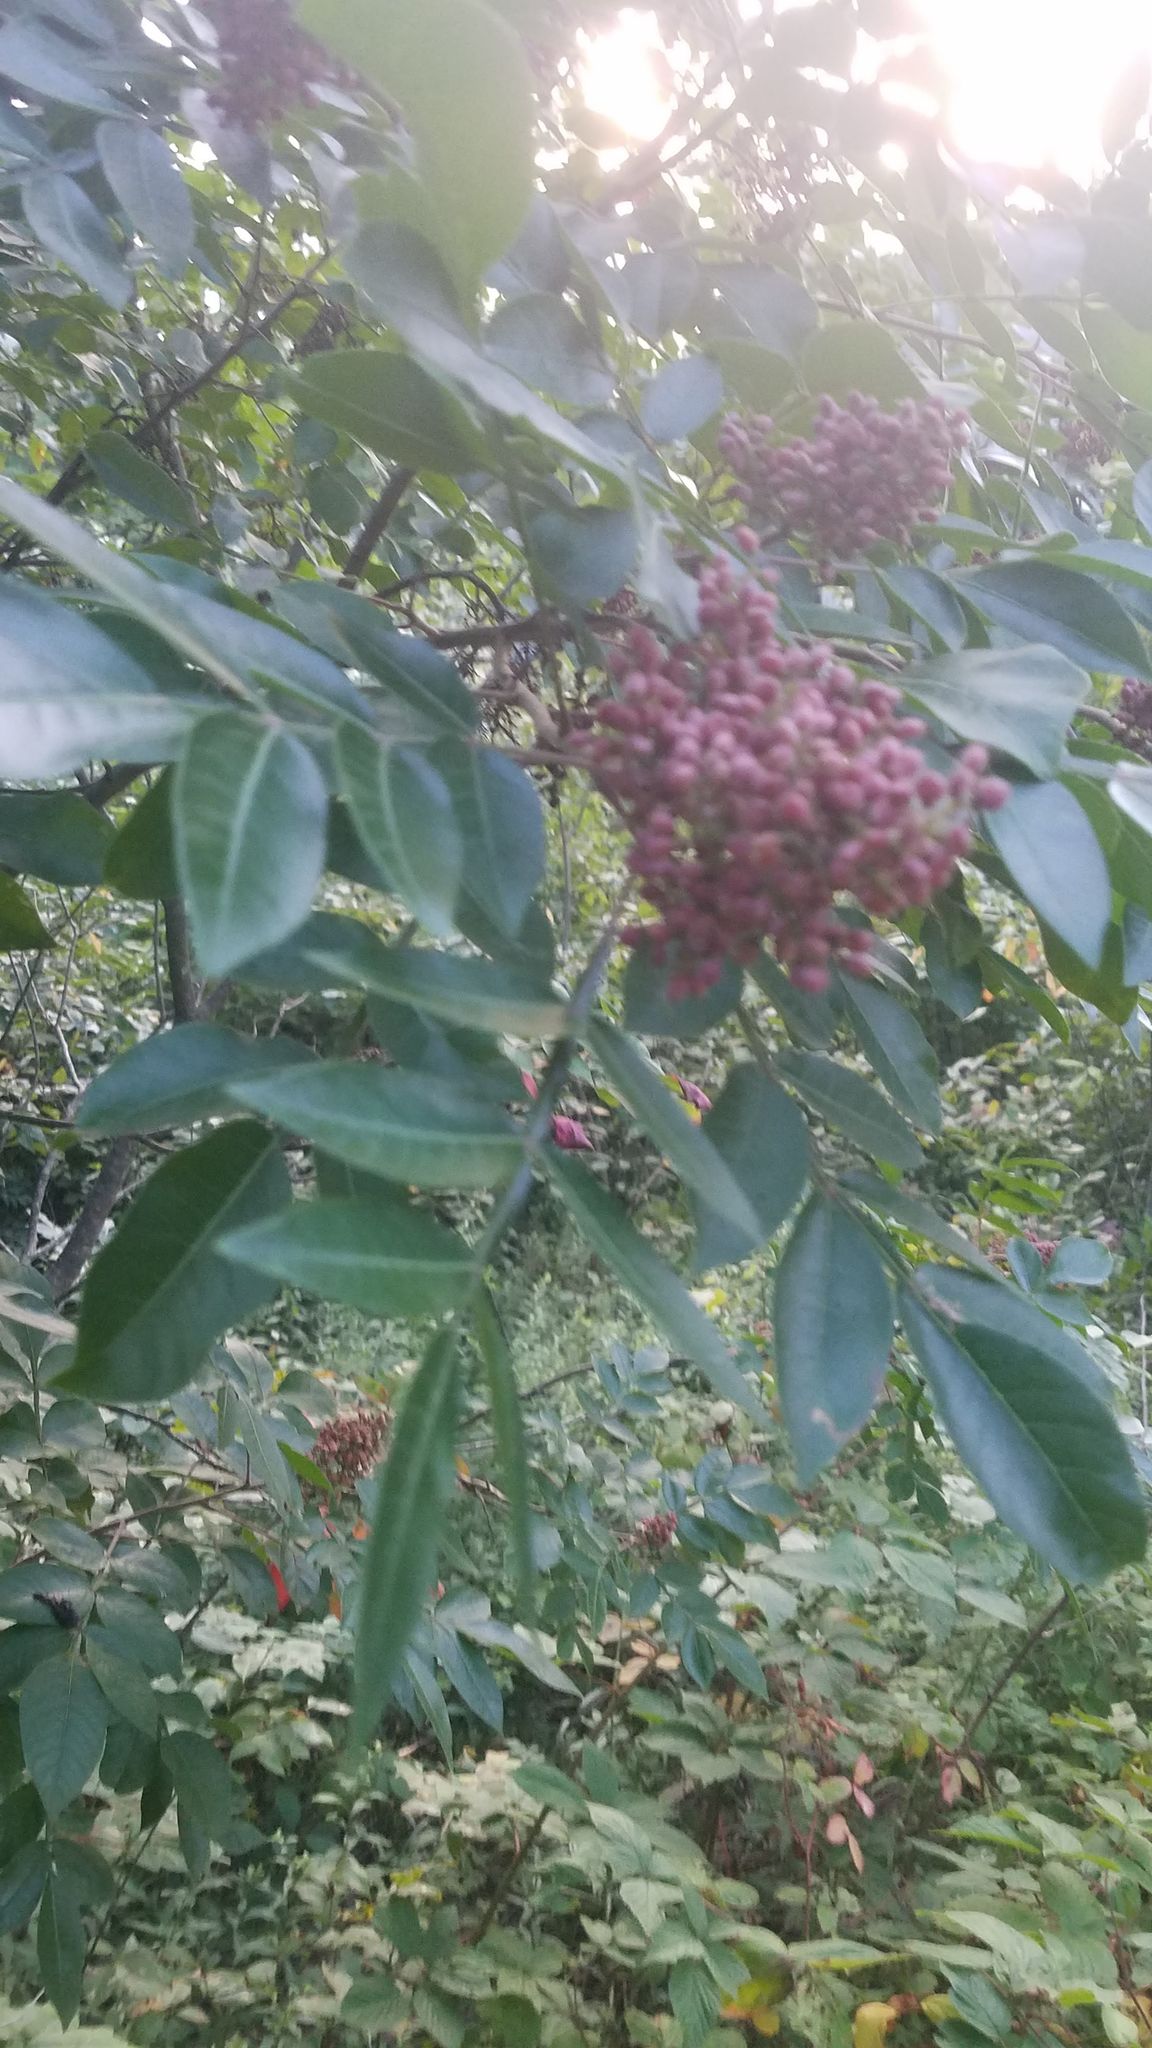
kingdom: Plantae
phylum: Tracheophyta
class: Magnoliopsida
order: Sapindales
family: Anacardiaceae
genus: Rhus
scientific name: Rhus copallina
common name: Shining sumac
